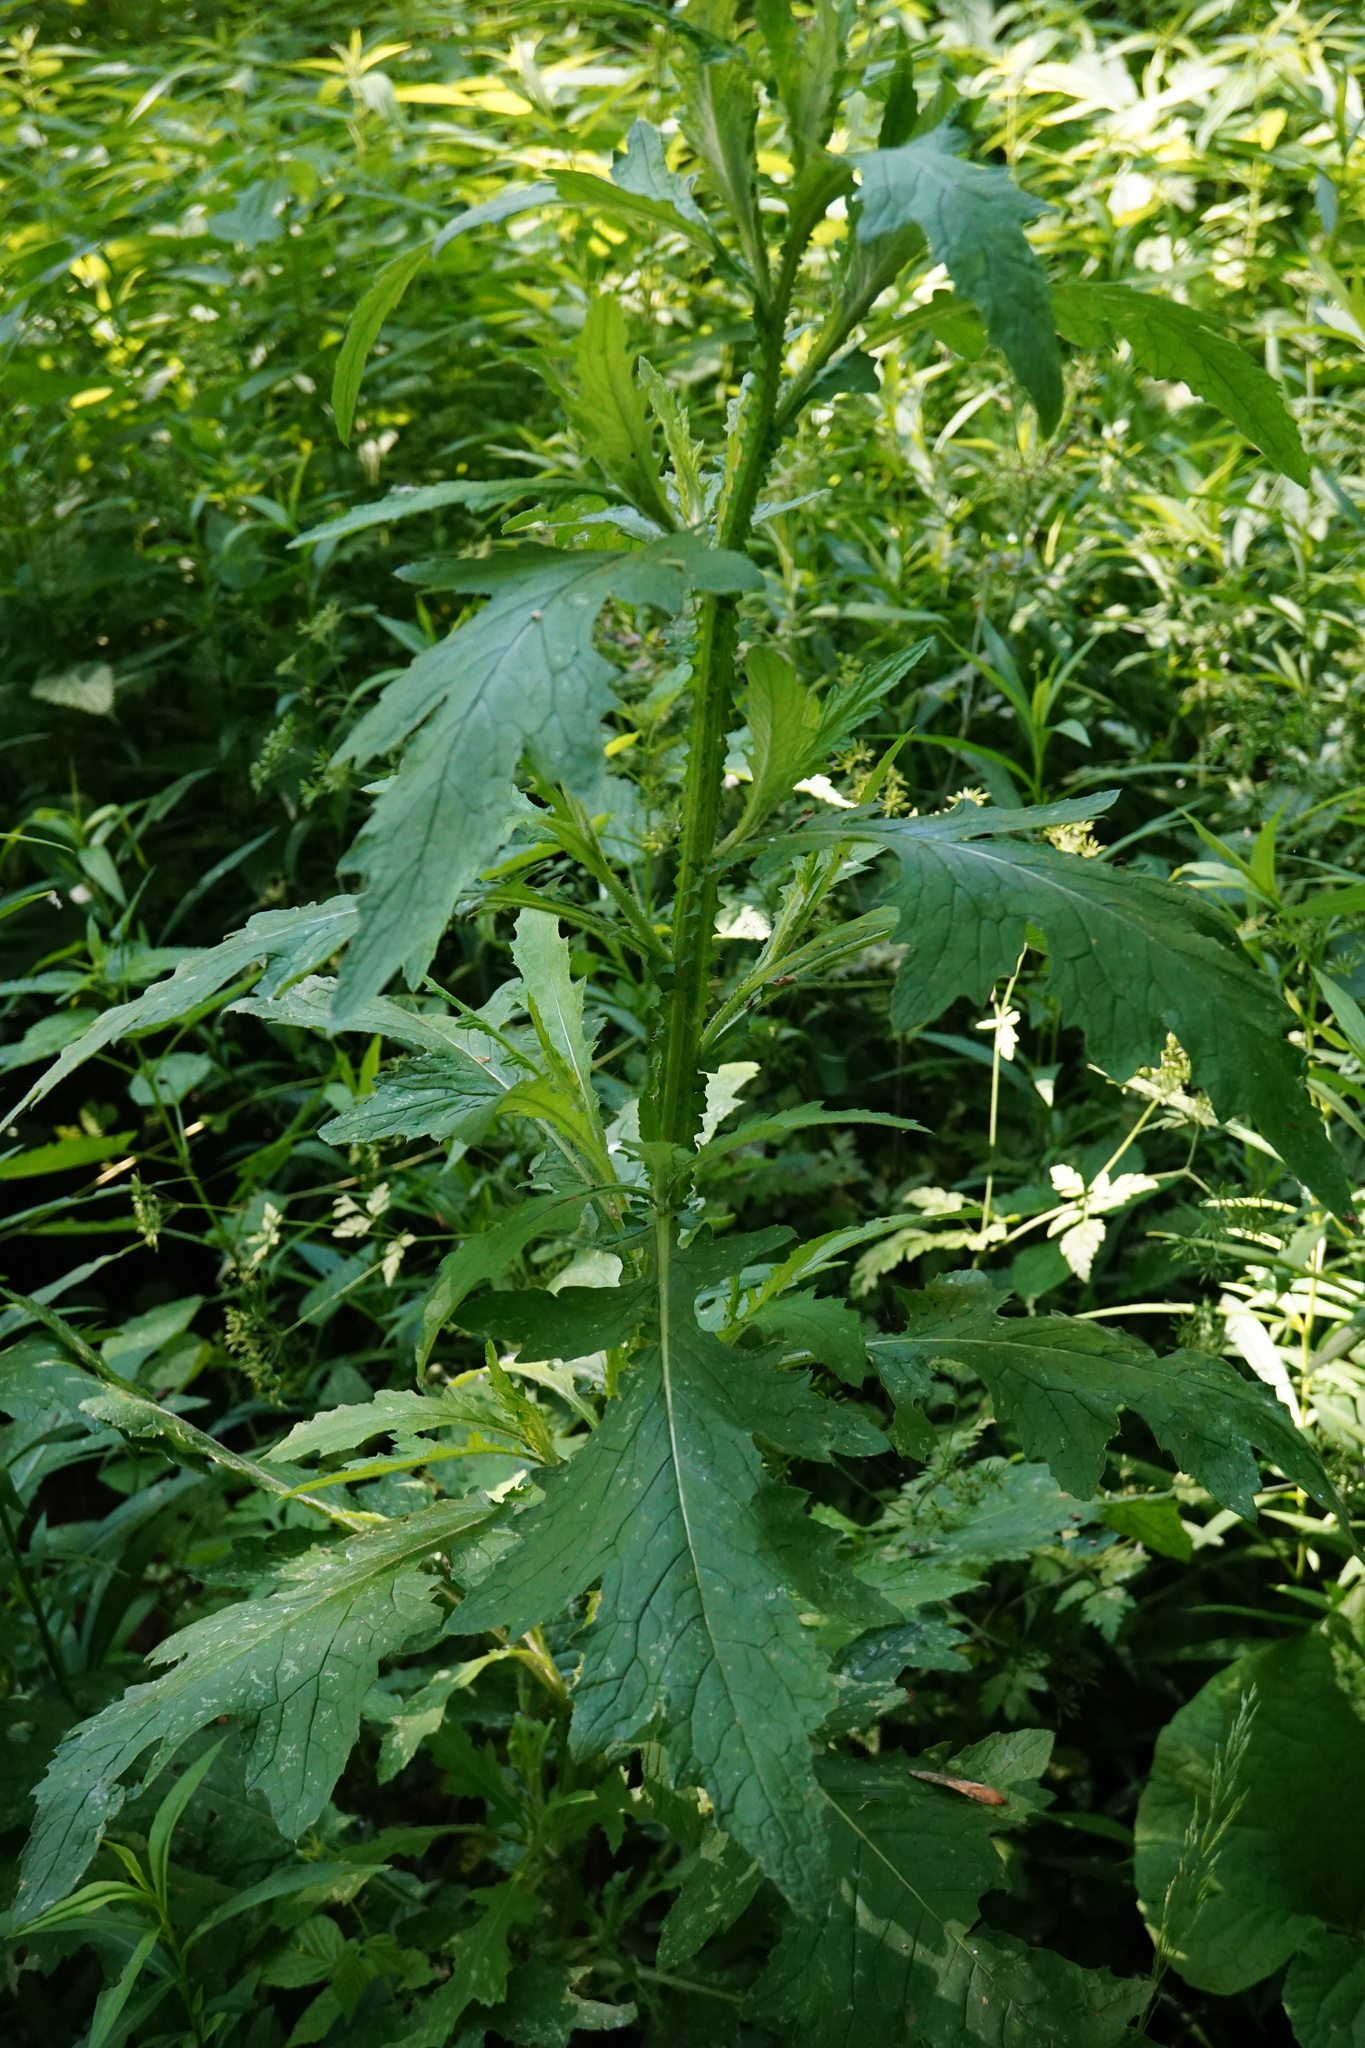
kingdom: Plantae
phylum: Tracheophyta
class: Magnoliopsida
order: Asterales
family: Asteraceae
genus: Carduus
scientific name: Carduus crispus
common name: Welted thistle
